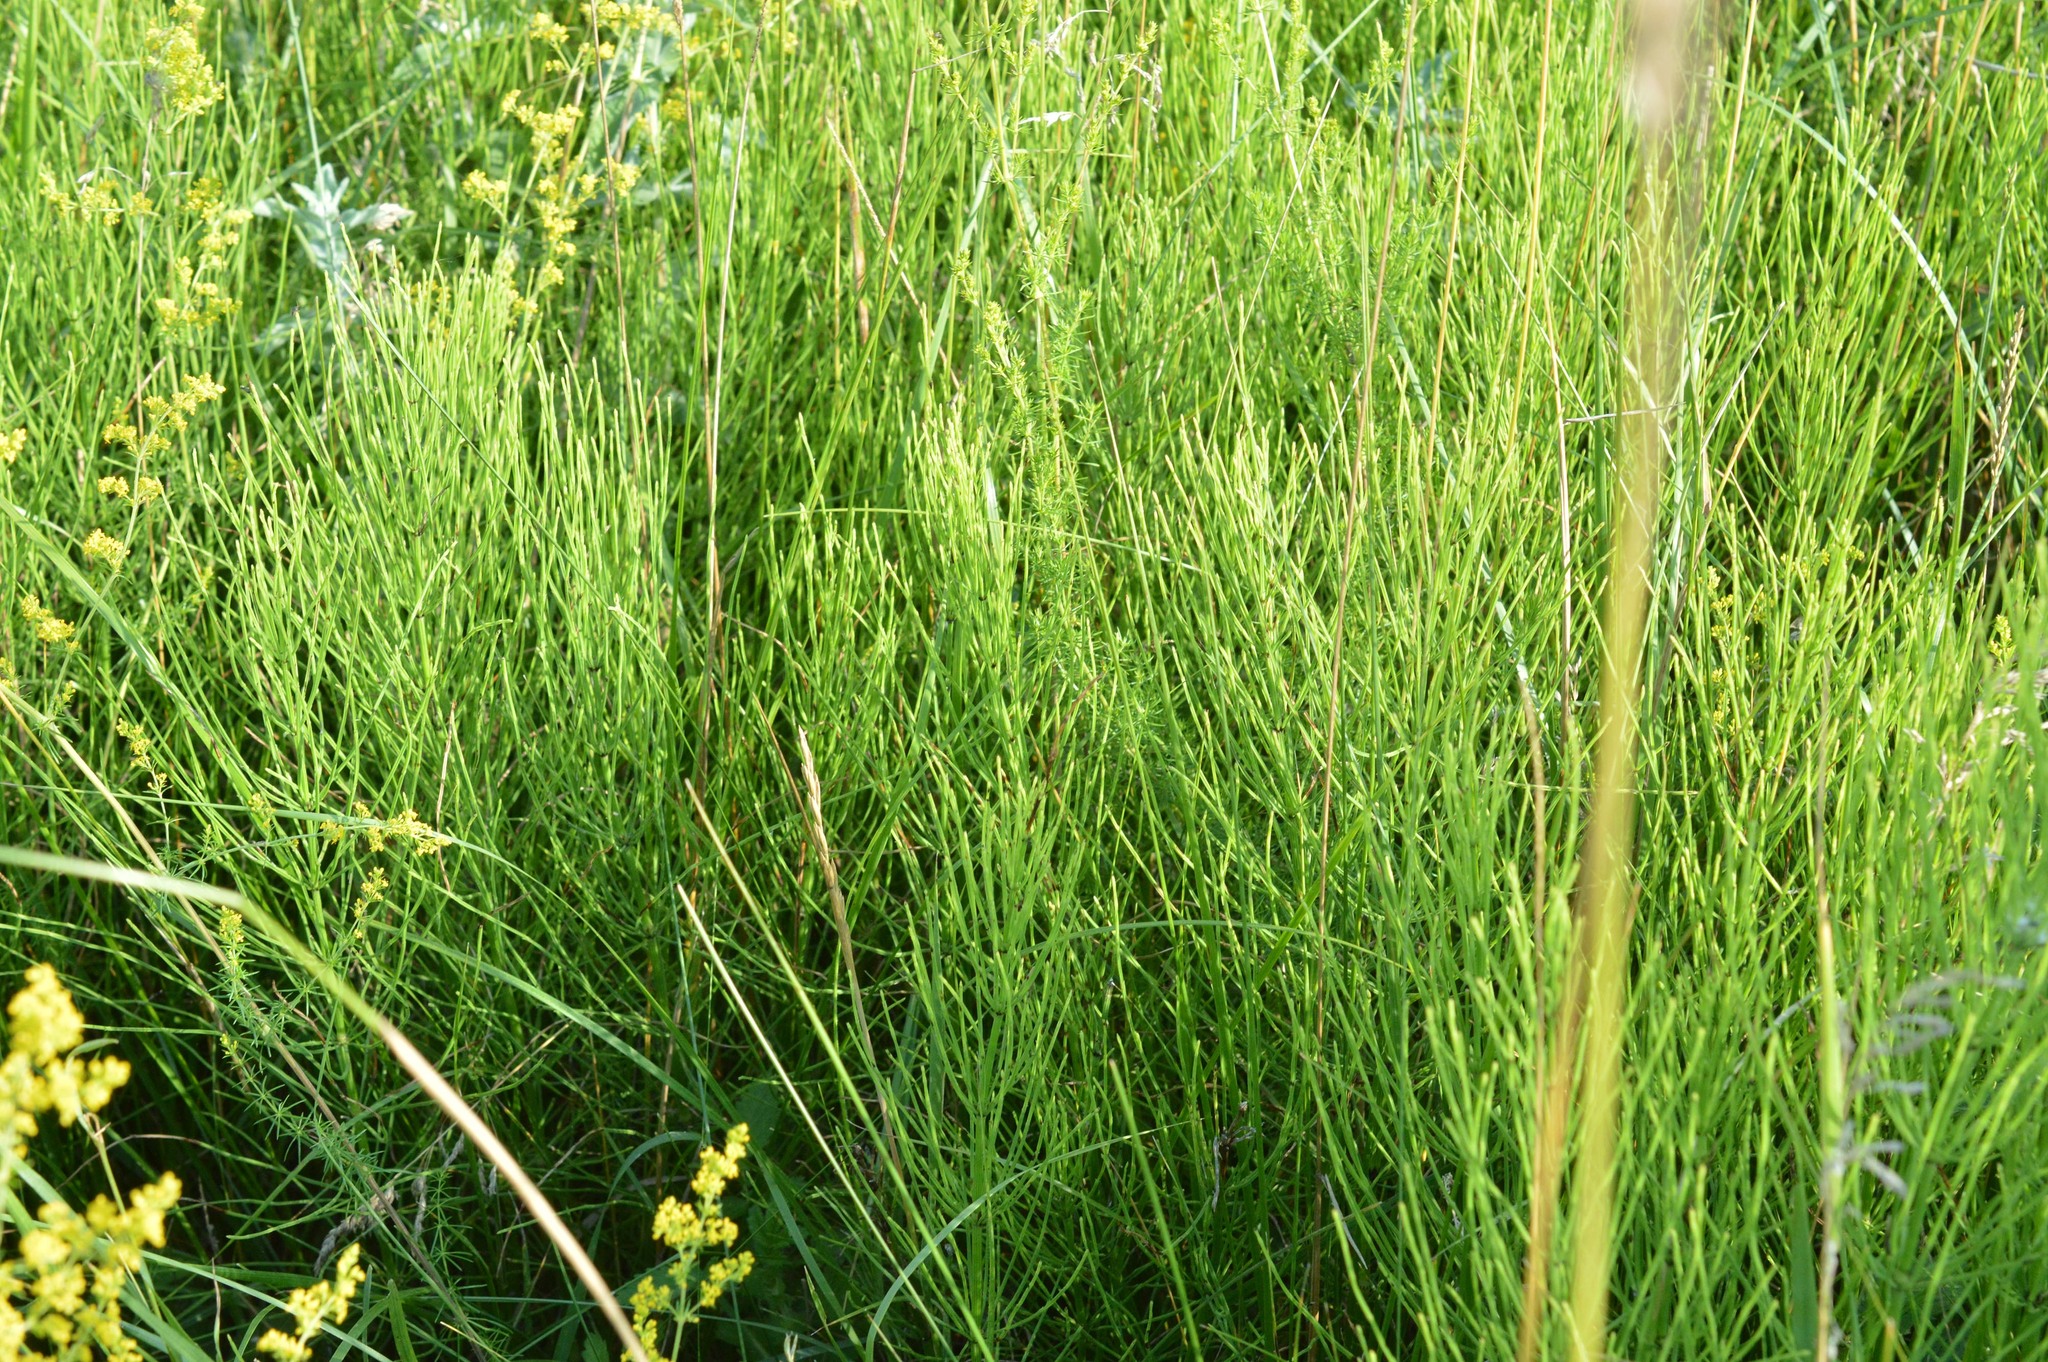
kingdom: Plantae
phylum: Tracheophyta
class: Polypodiopsida
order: Equisetales
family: Equisetaceae
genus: Equisetum
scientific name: Equisetum arvense
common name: Field horsetail
